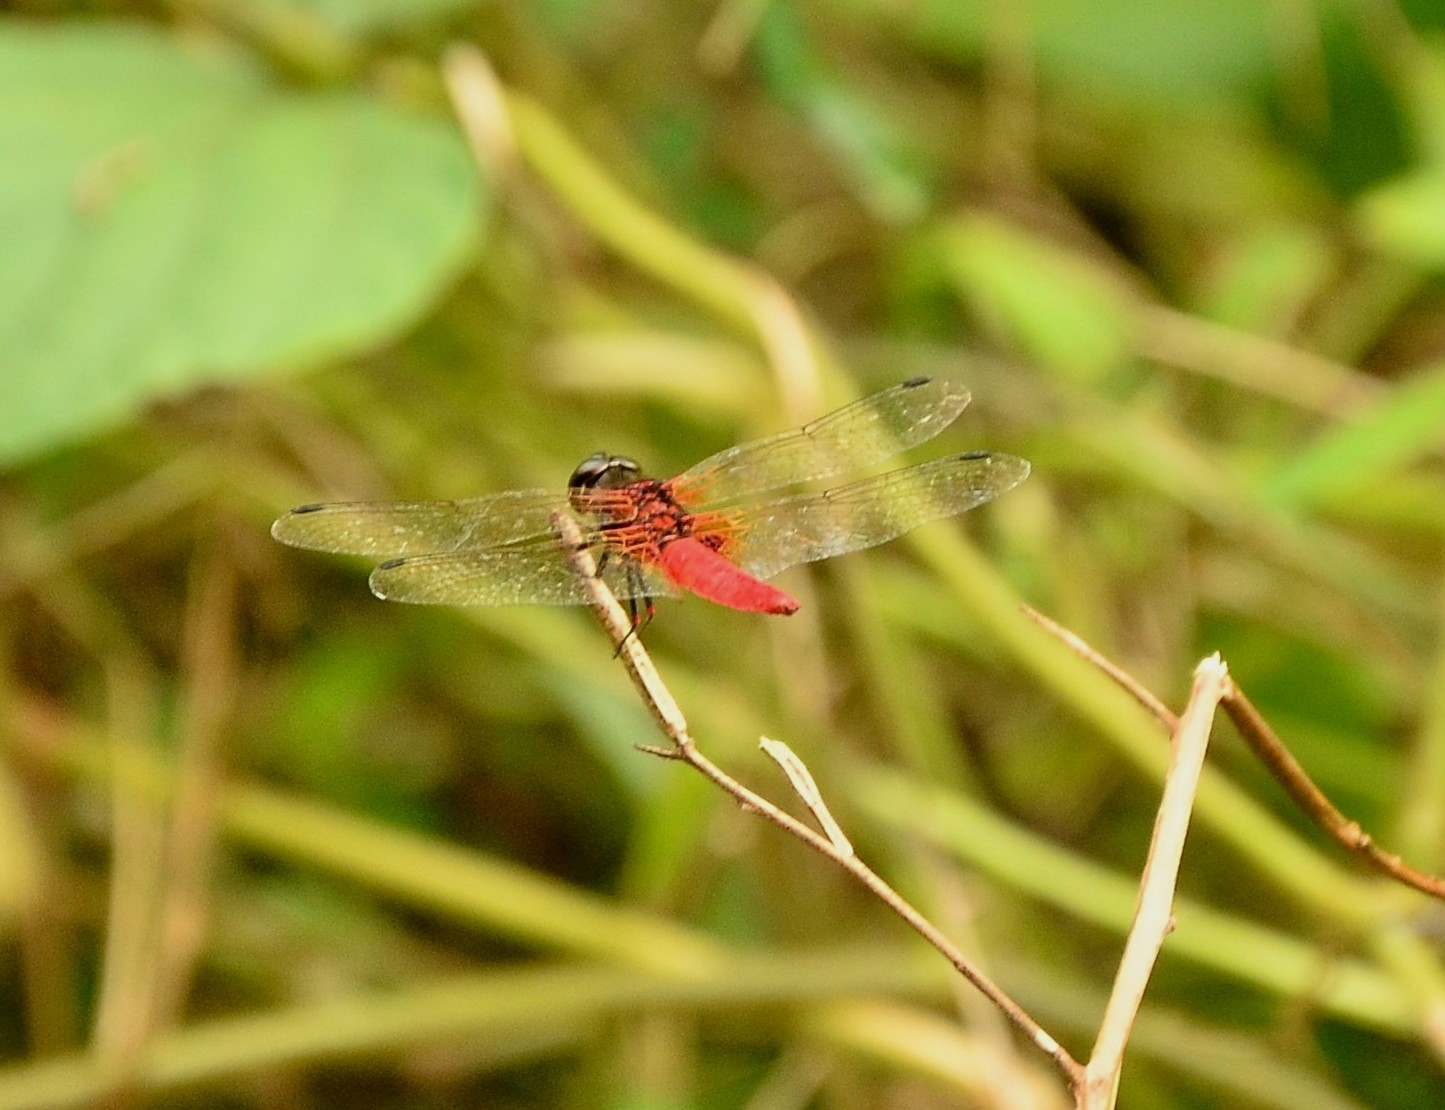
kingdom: Animalia
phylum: Arthropoda
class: Insecta
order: Odonata
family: Libellulidae
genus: Aethriamanta
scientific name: Aethriamanta brevipennis
